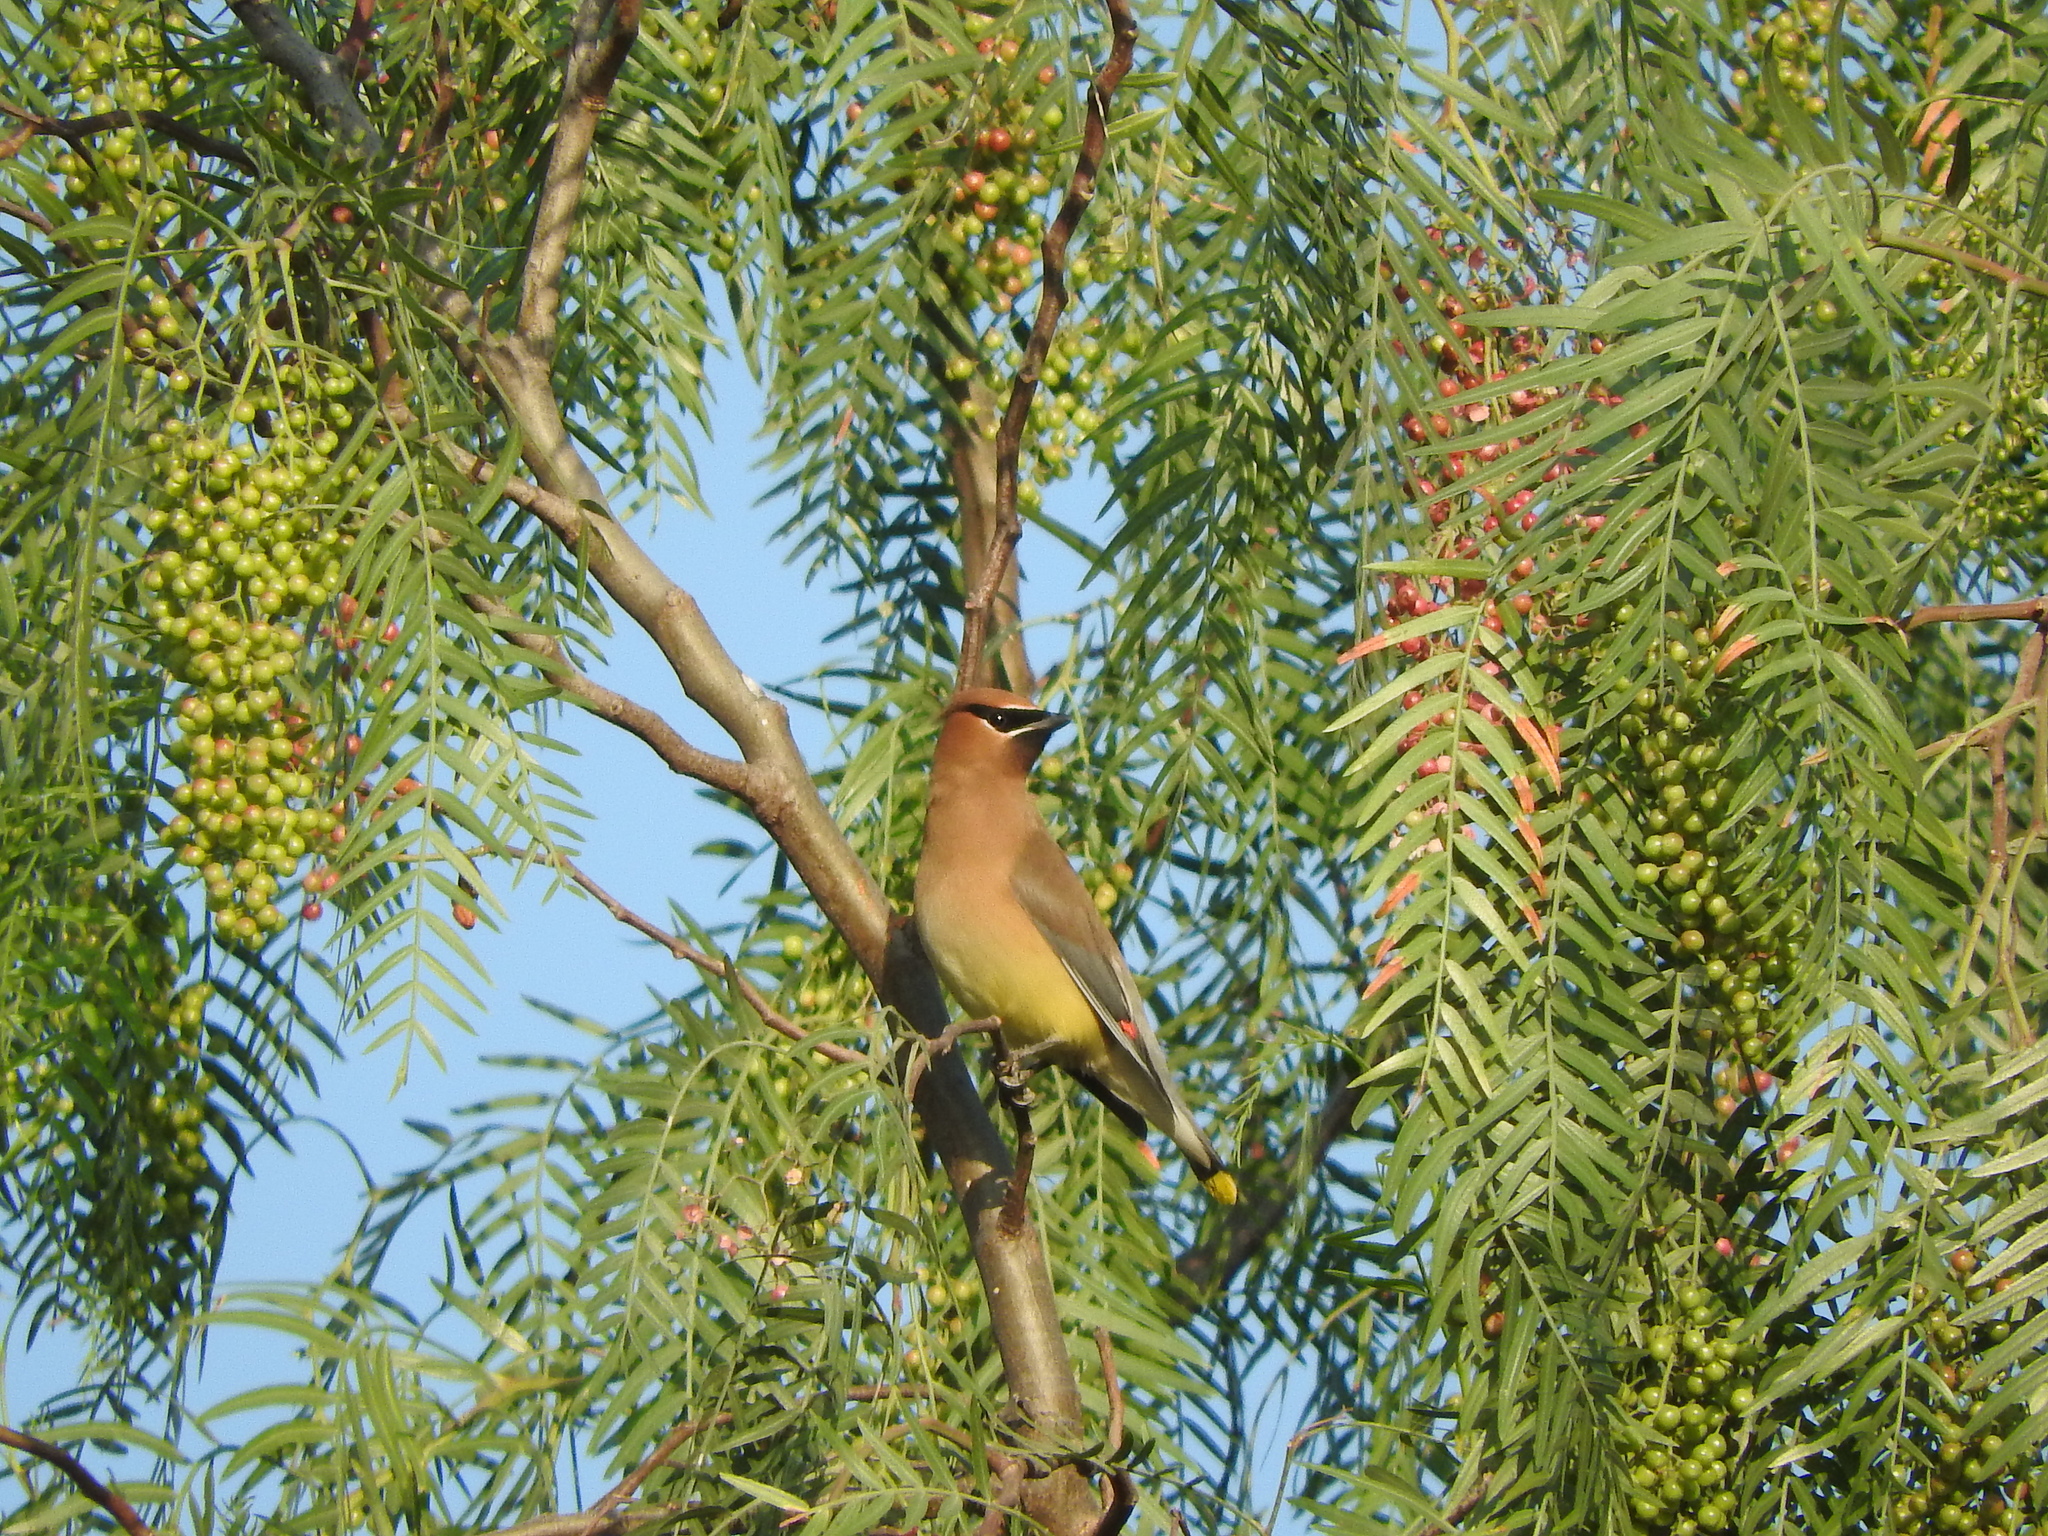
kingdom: Animalia
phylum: Chordata
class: Aves
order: Passeriformes
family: Bombycillidae
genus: Bombycilla
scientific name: Bombycilla cedrorum
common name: Cedar waxwing
